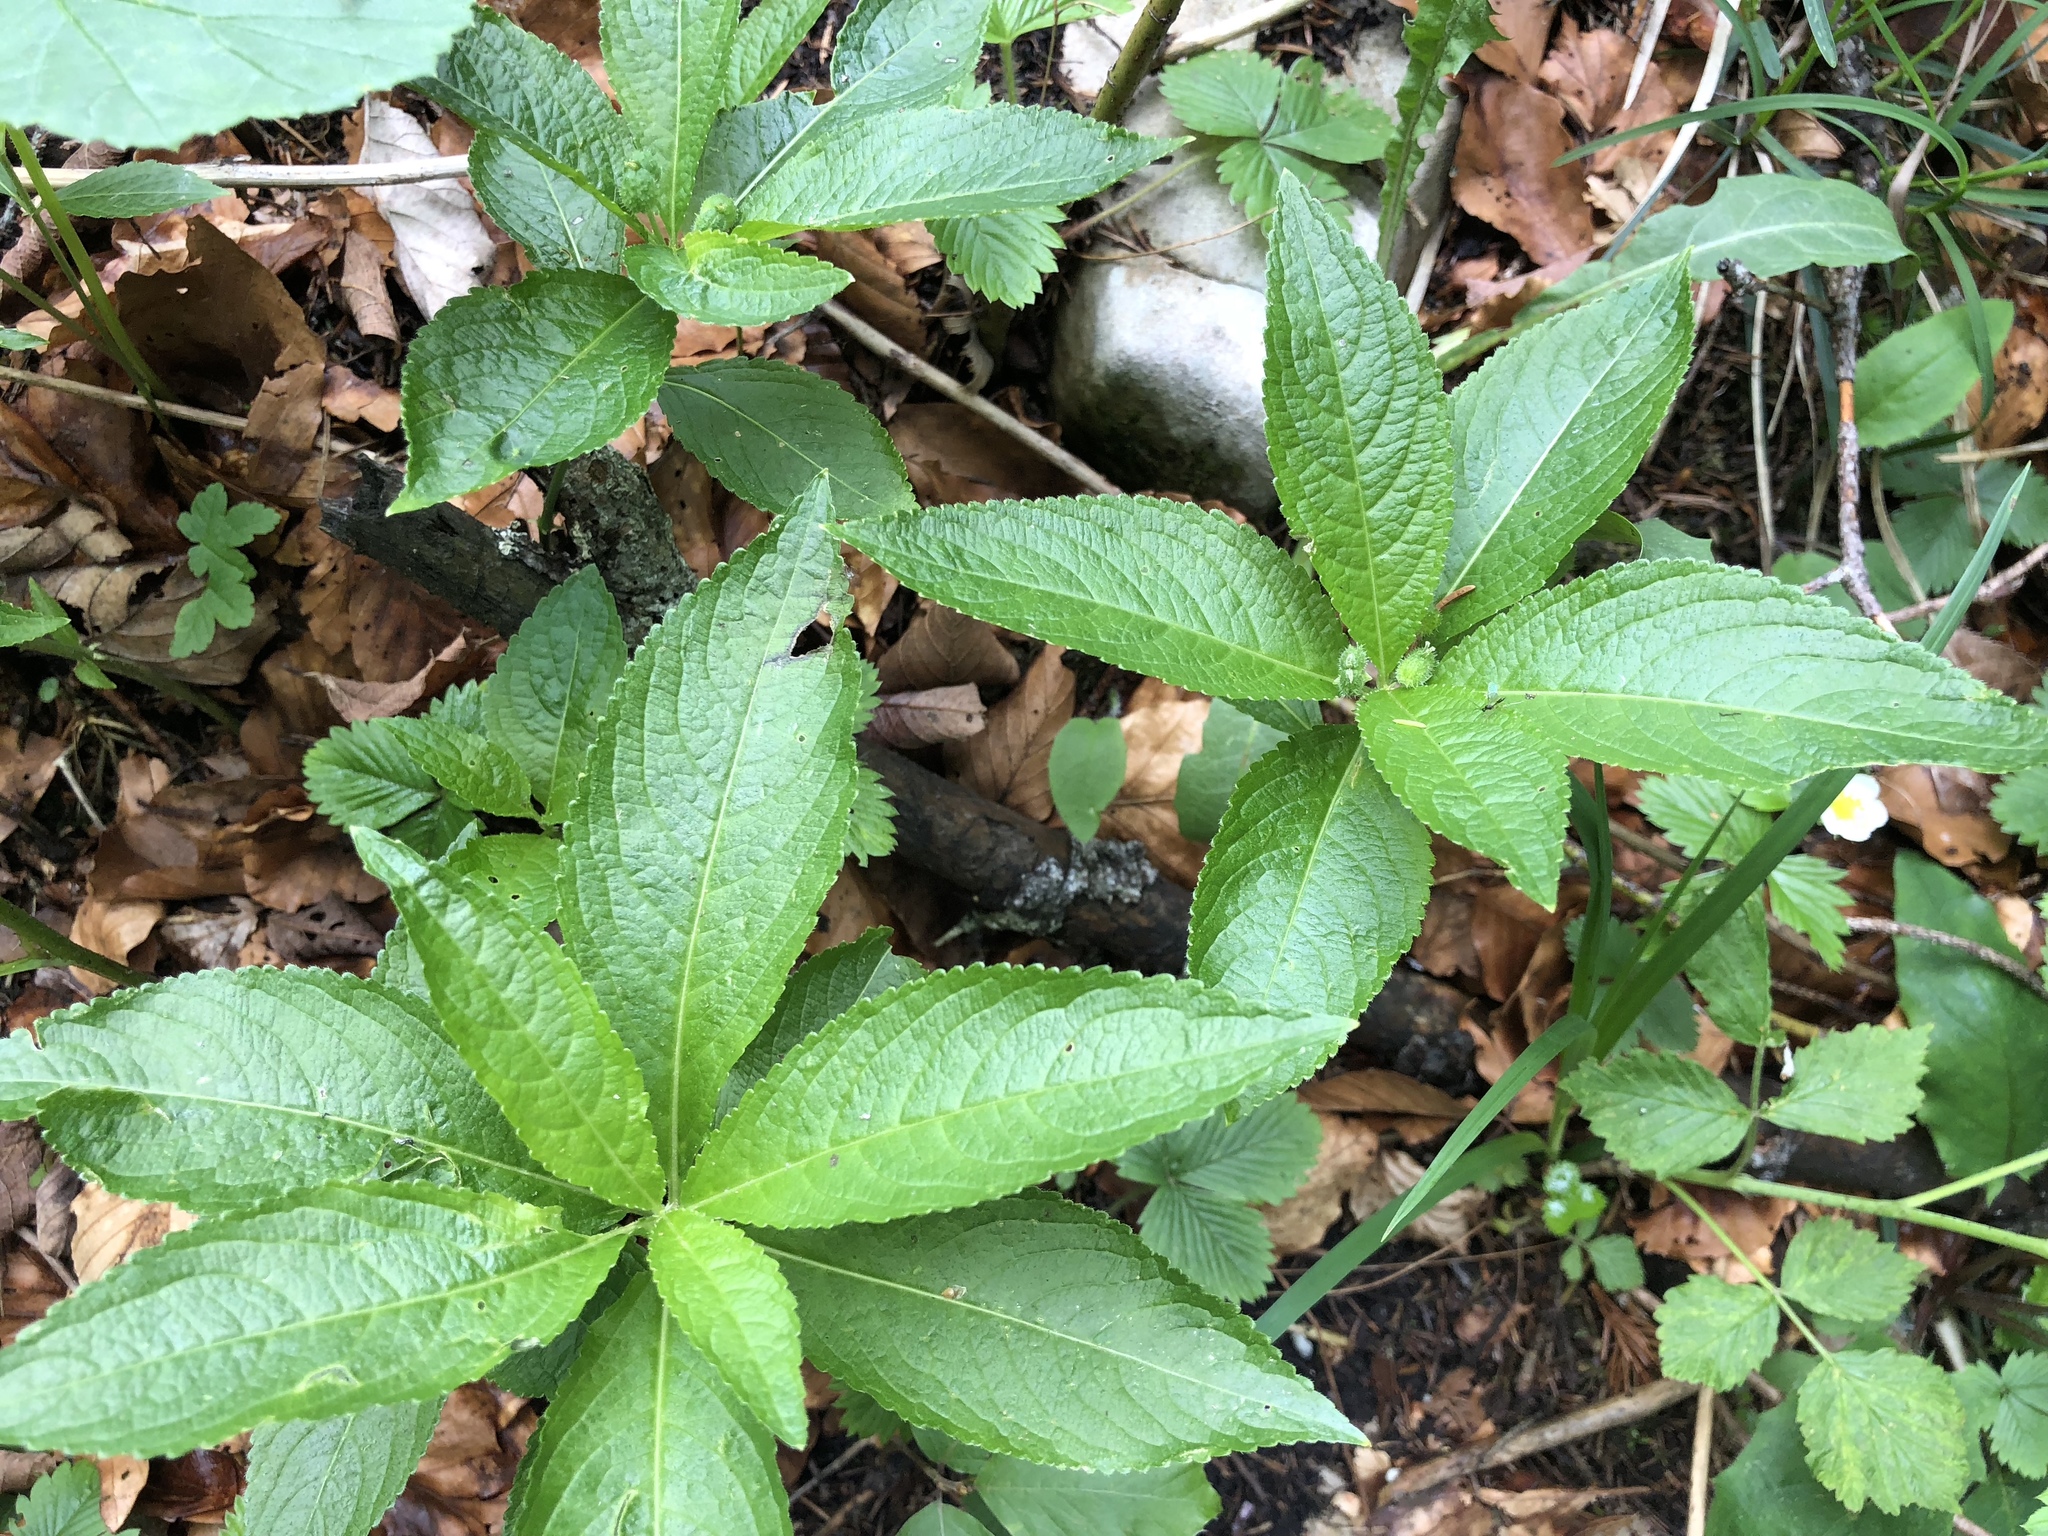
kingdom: Plantae
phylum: Tracheophyta
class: Magnoliopsida
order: Malpighiales
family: Euphorbiaceae
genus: Mercurialis
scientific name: Mercurialis perennis
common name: Dog mercury
